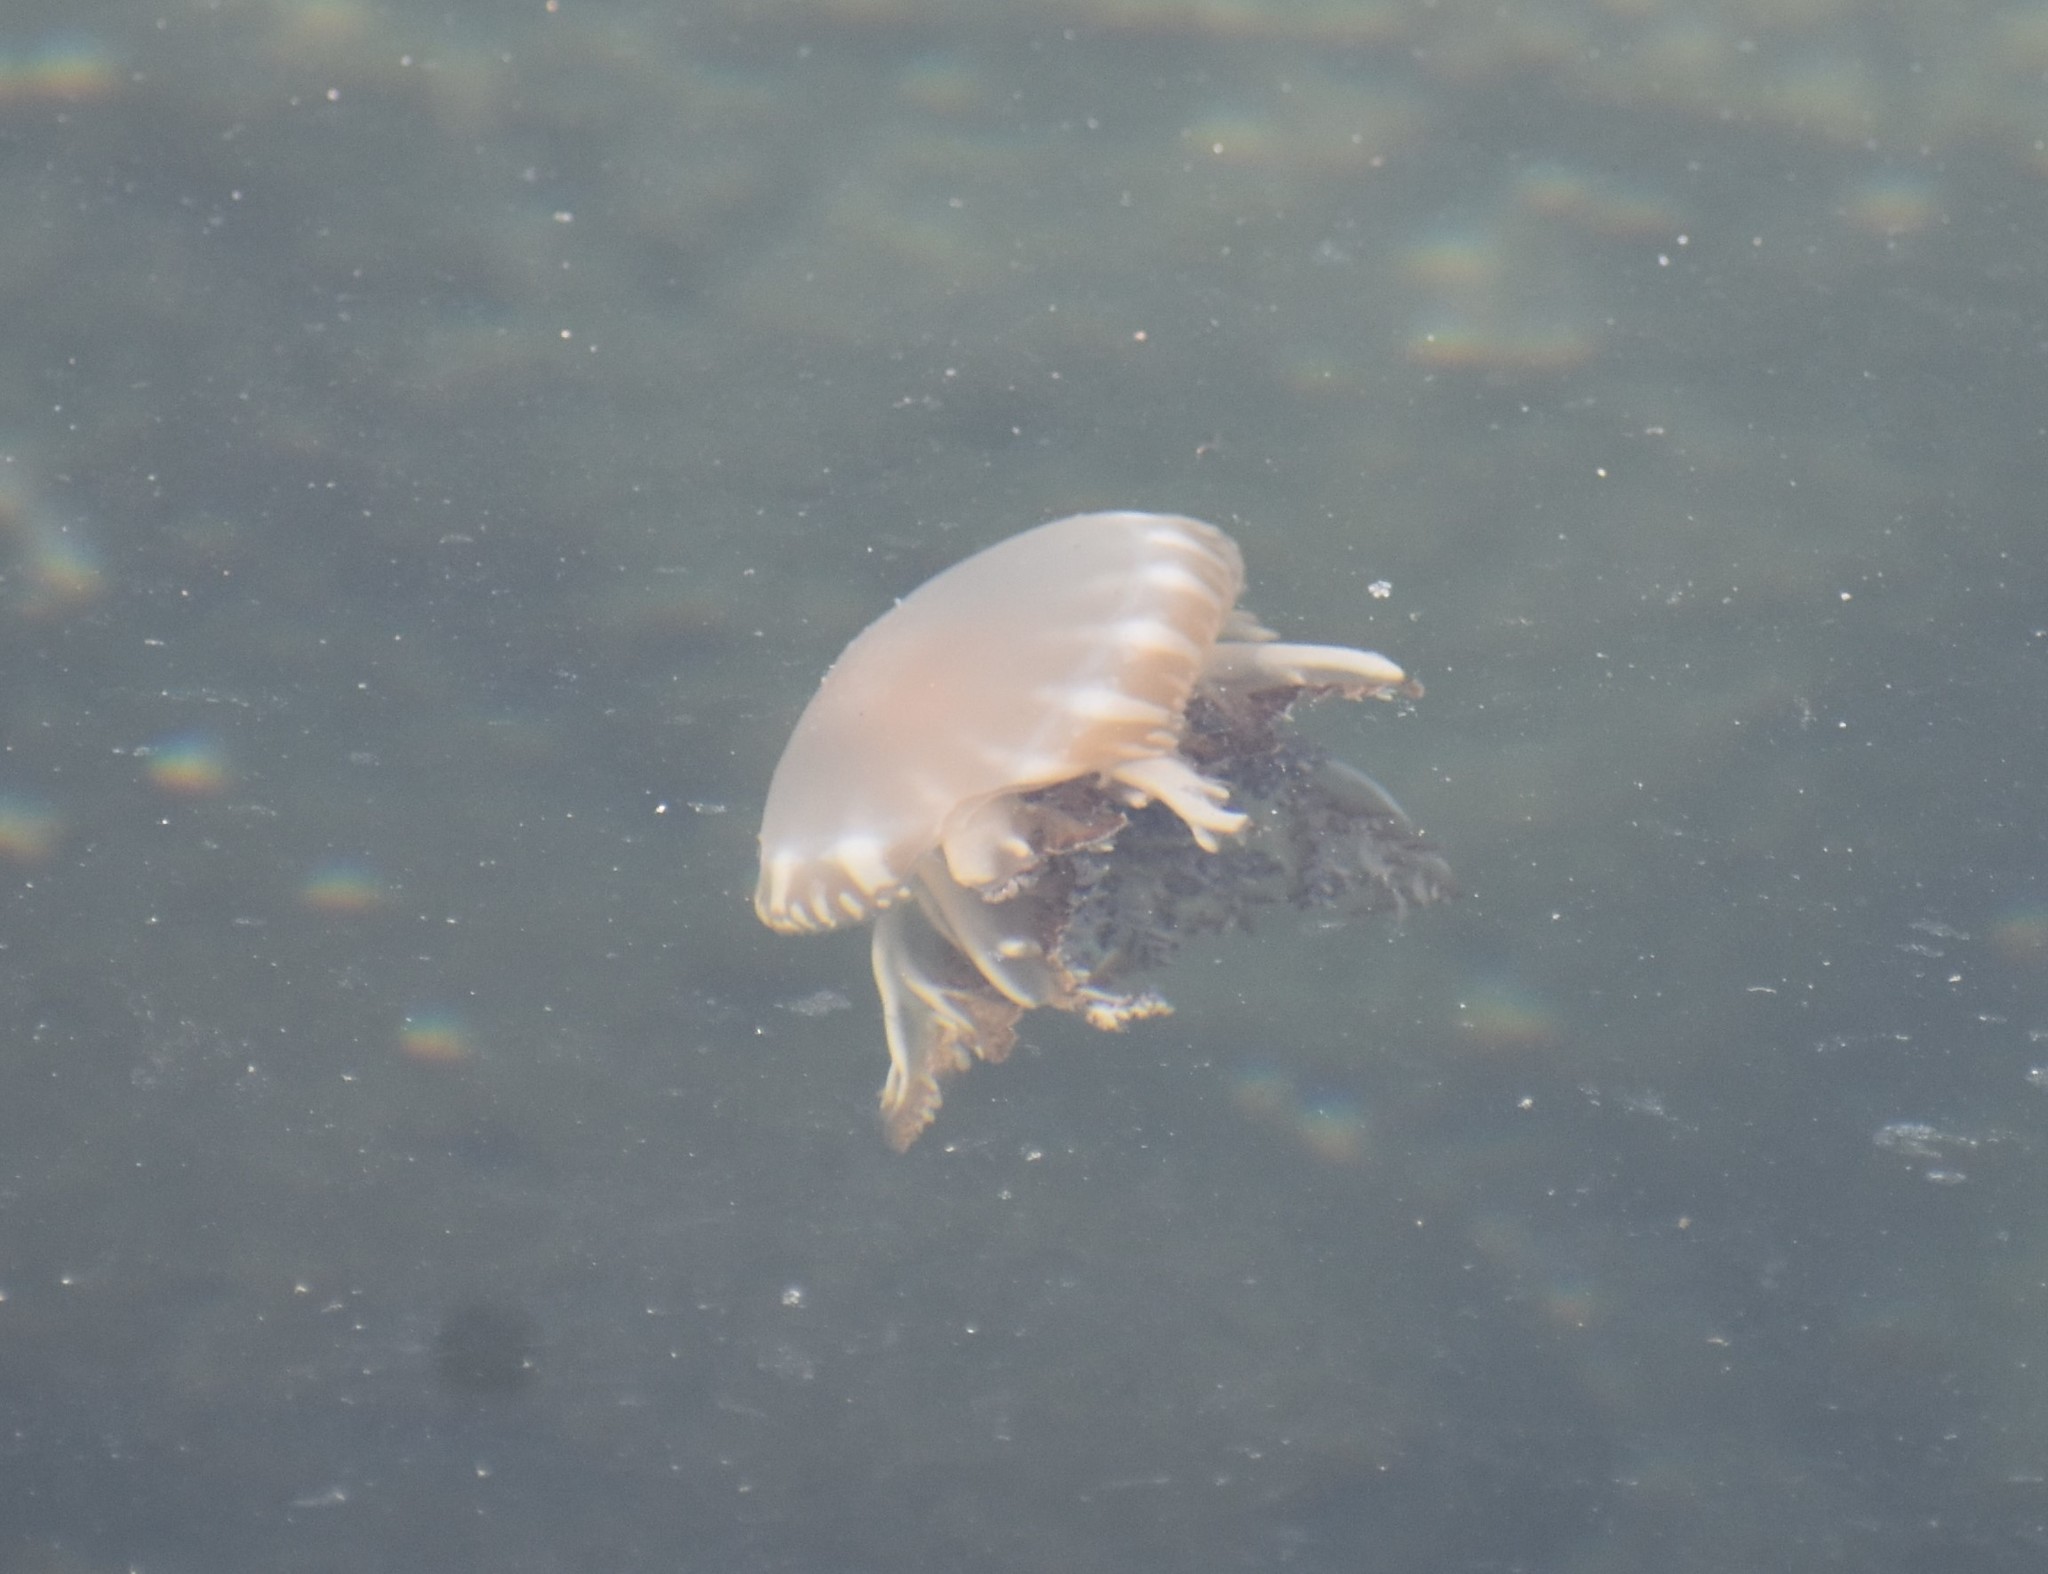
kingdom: Animalia
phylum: Cnidaria
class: Scyphozoa
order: Rhizostomeae
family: Cassiopeidae
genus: Cassiopea
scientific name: Cassiopea andromeda
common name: Upside-down jellyfish
